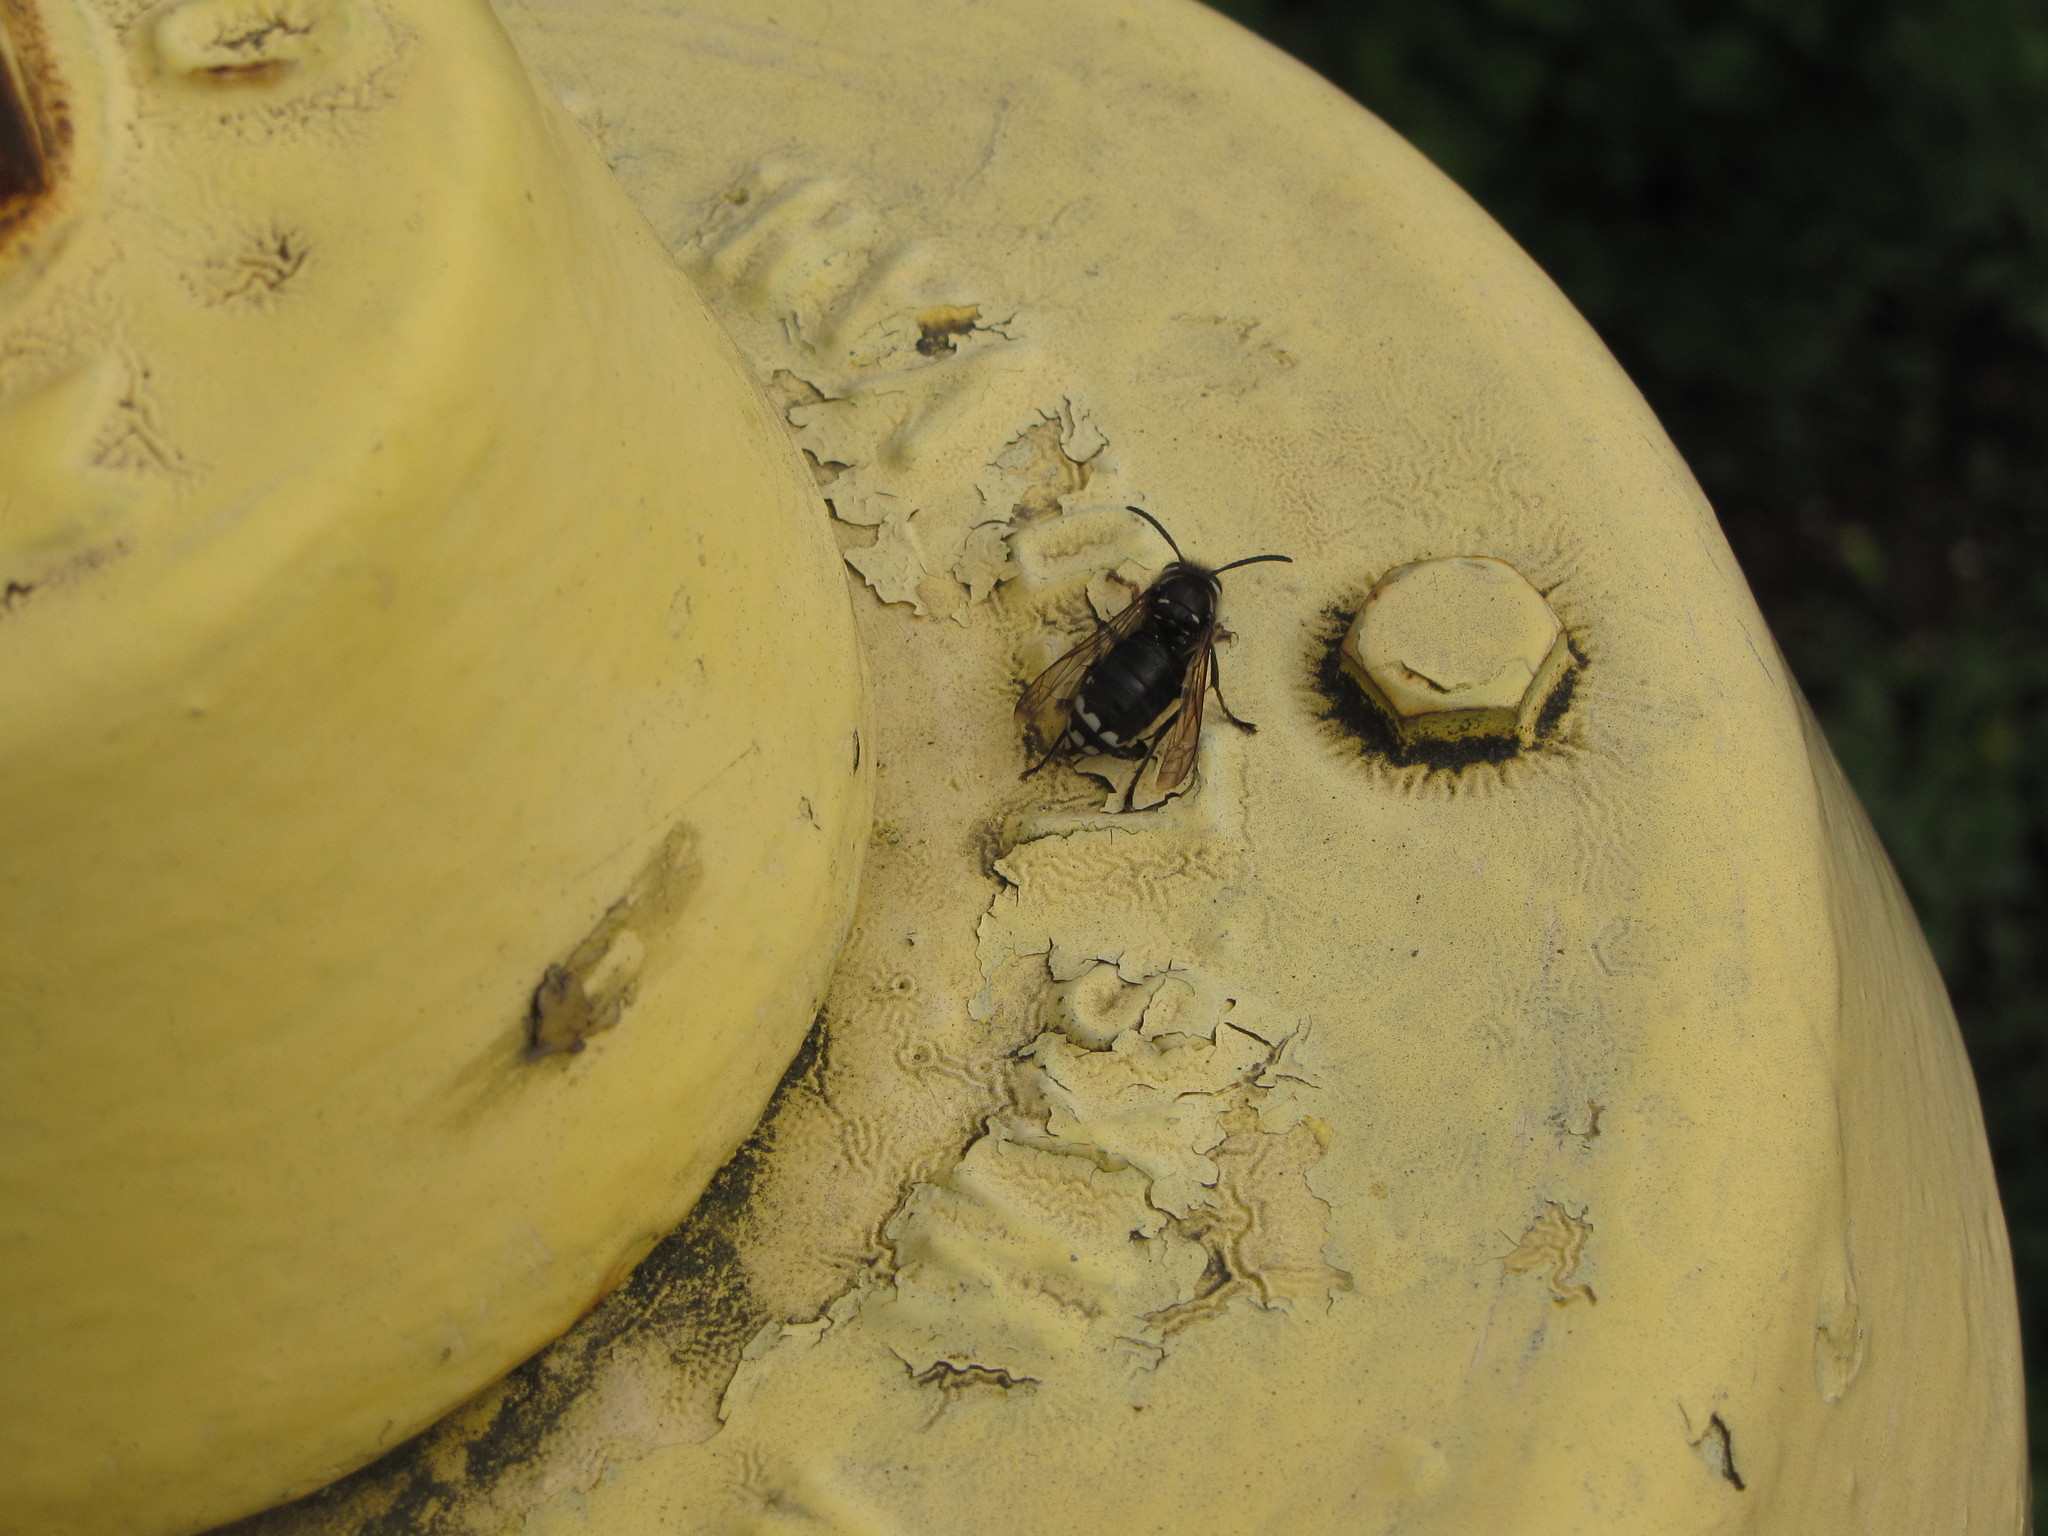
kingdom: Animalia
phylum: Arthropoda
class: Insecta
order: Hymenoptera
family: Vespidae
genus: Dolichovespula
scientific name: Dolichovespula maculata
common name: Bald-faced hornet
